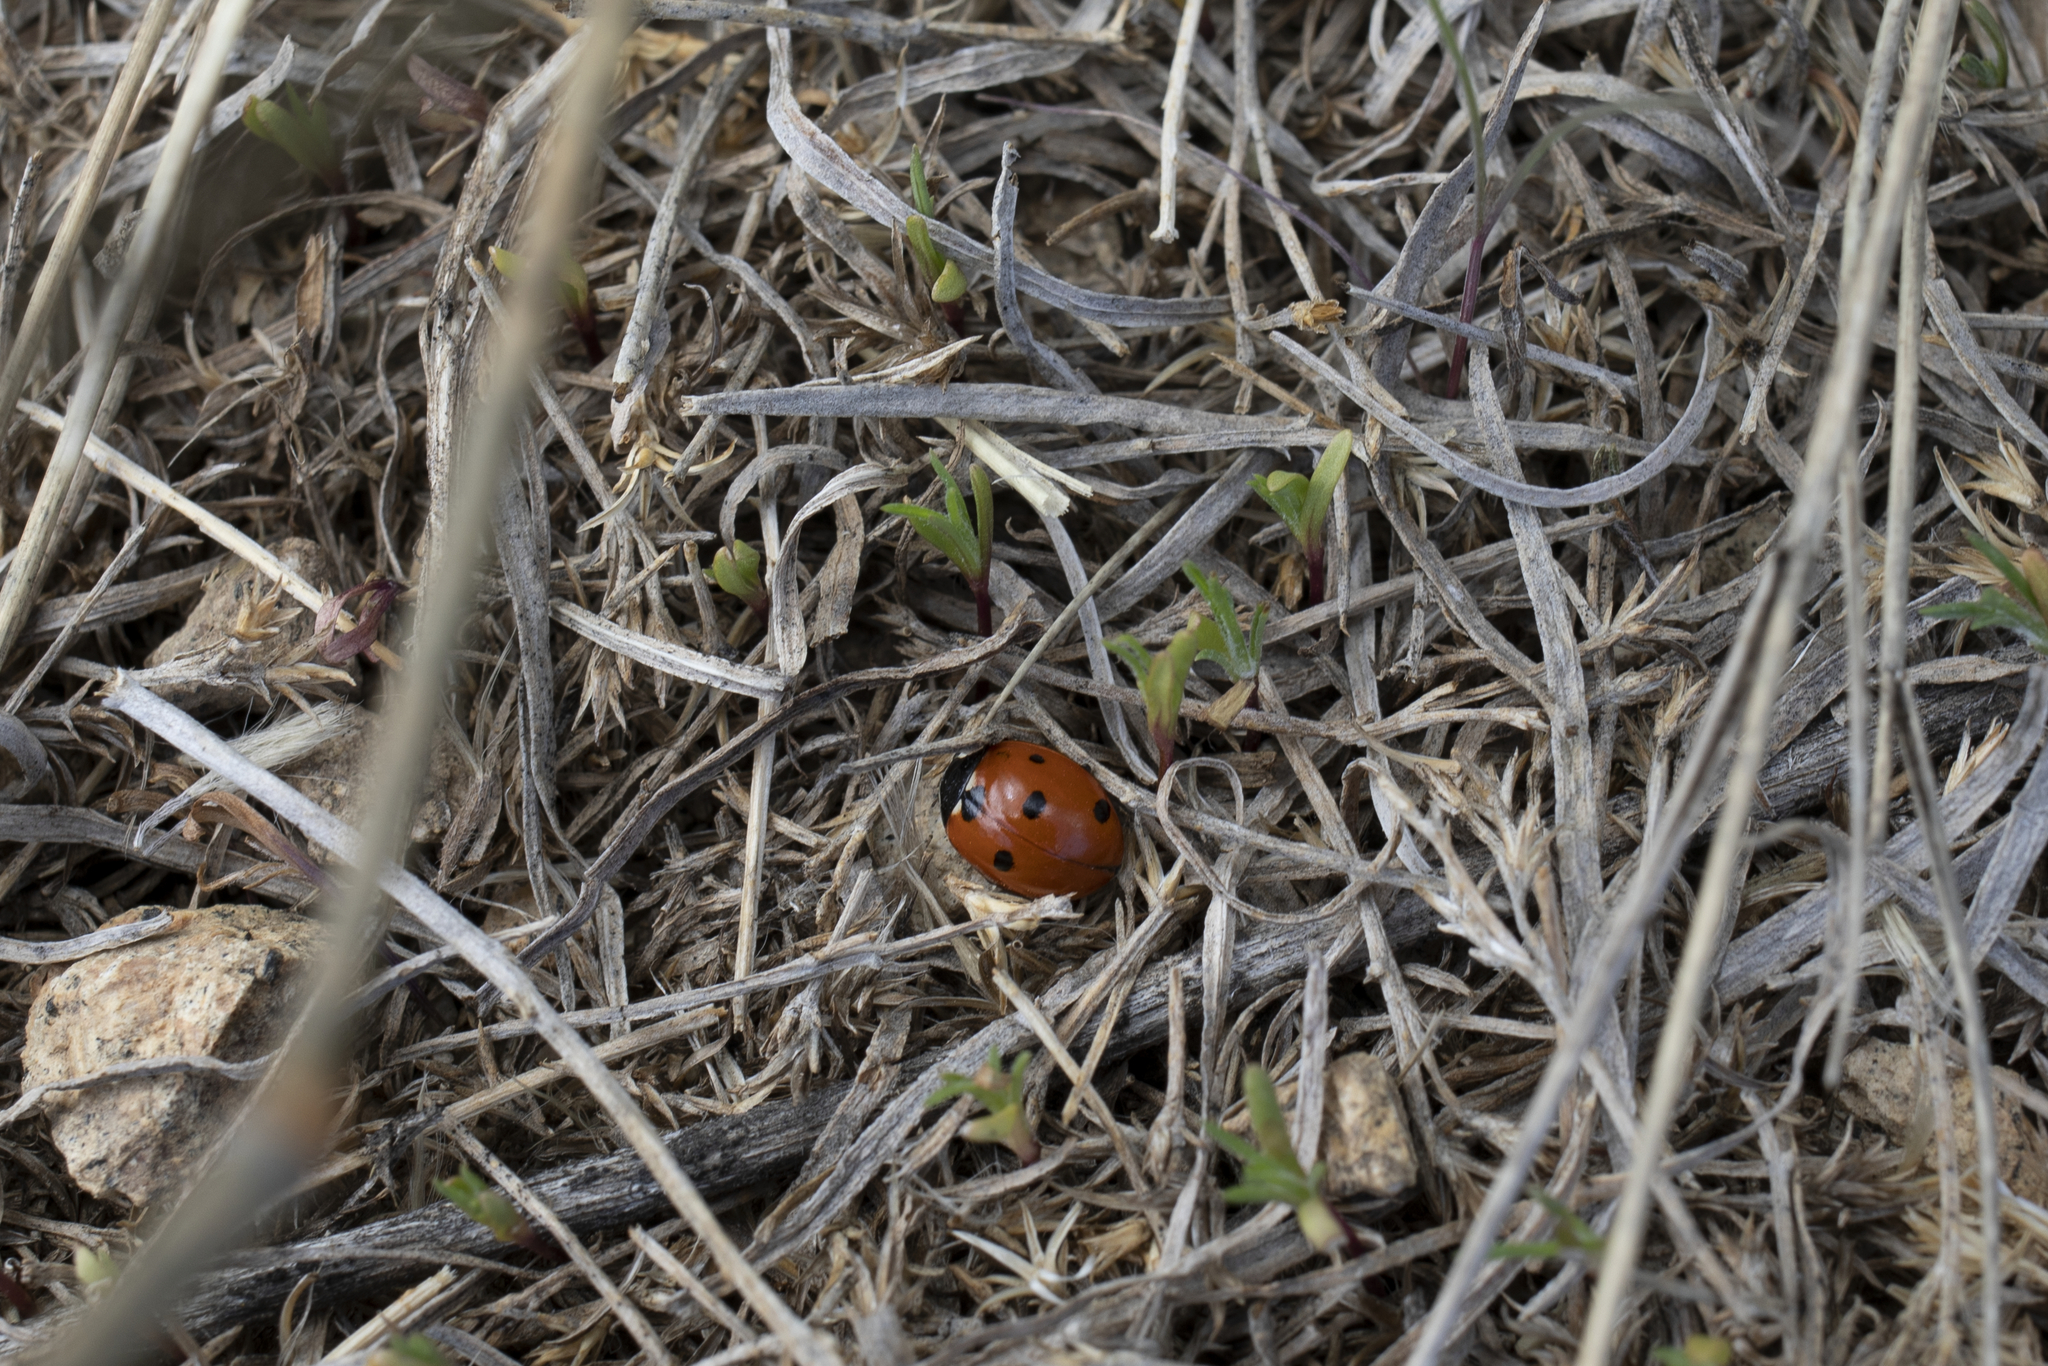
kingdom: Animalia
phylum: Arthropoda
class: Insecta
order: Coleoptera
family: Coccinellidae
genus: Coccinella
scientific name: Coccinella septempunctata
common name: Sevenspotted lady beetle
